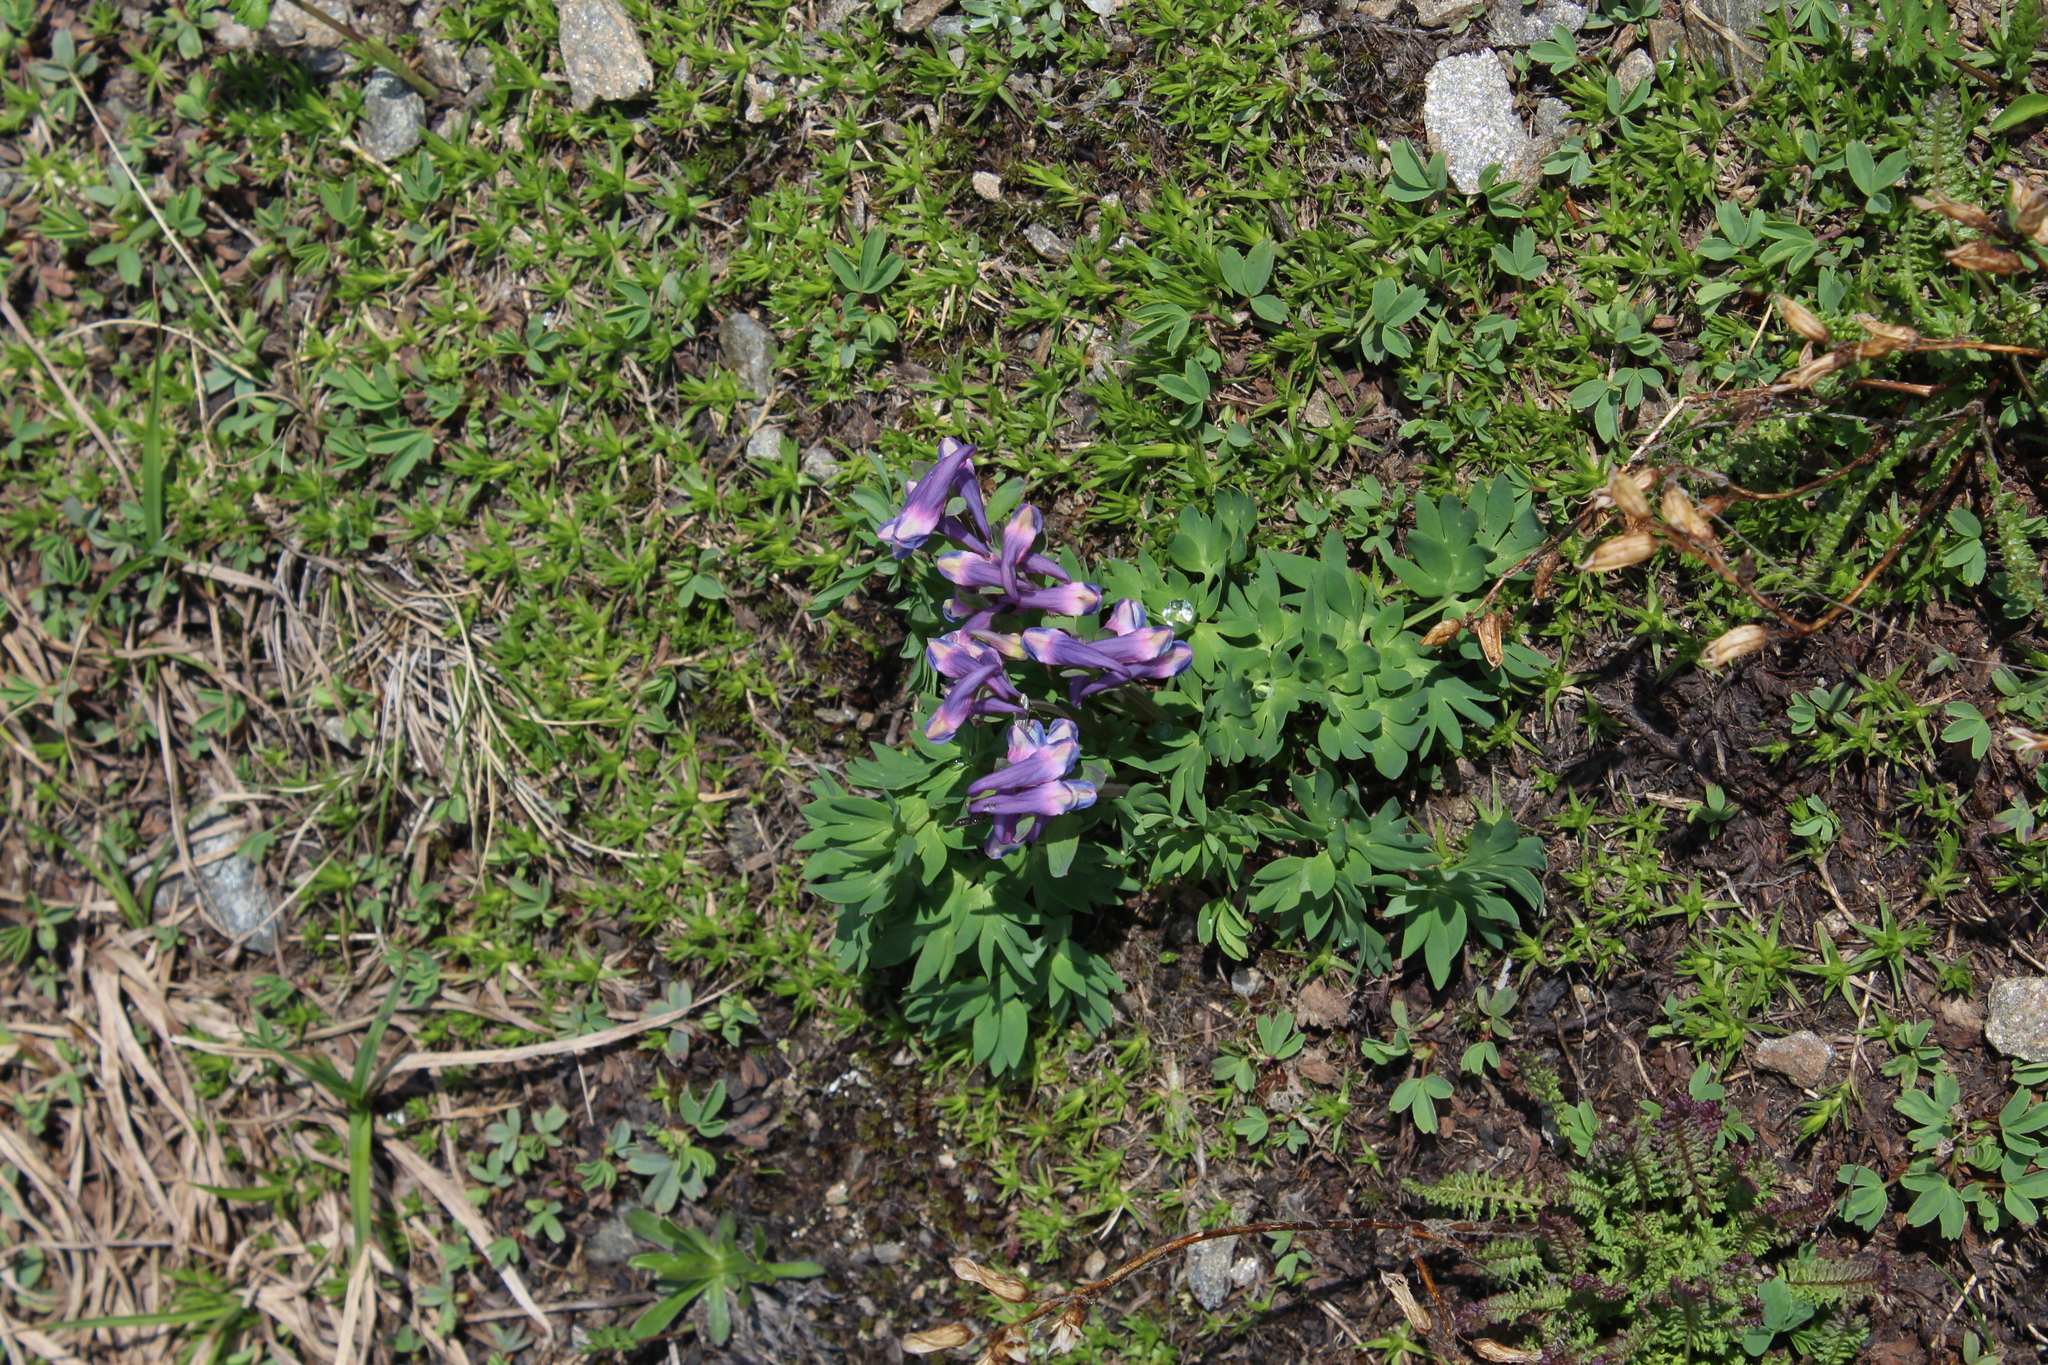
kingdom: Plantae
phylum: Tracheophyta
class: Magnoliopsida
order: Ranunculales
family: Papaveraceae
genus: Corydalis
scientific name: Corydalis conorhiza
